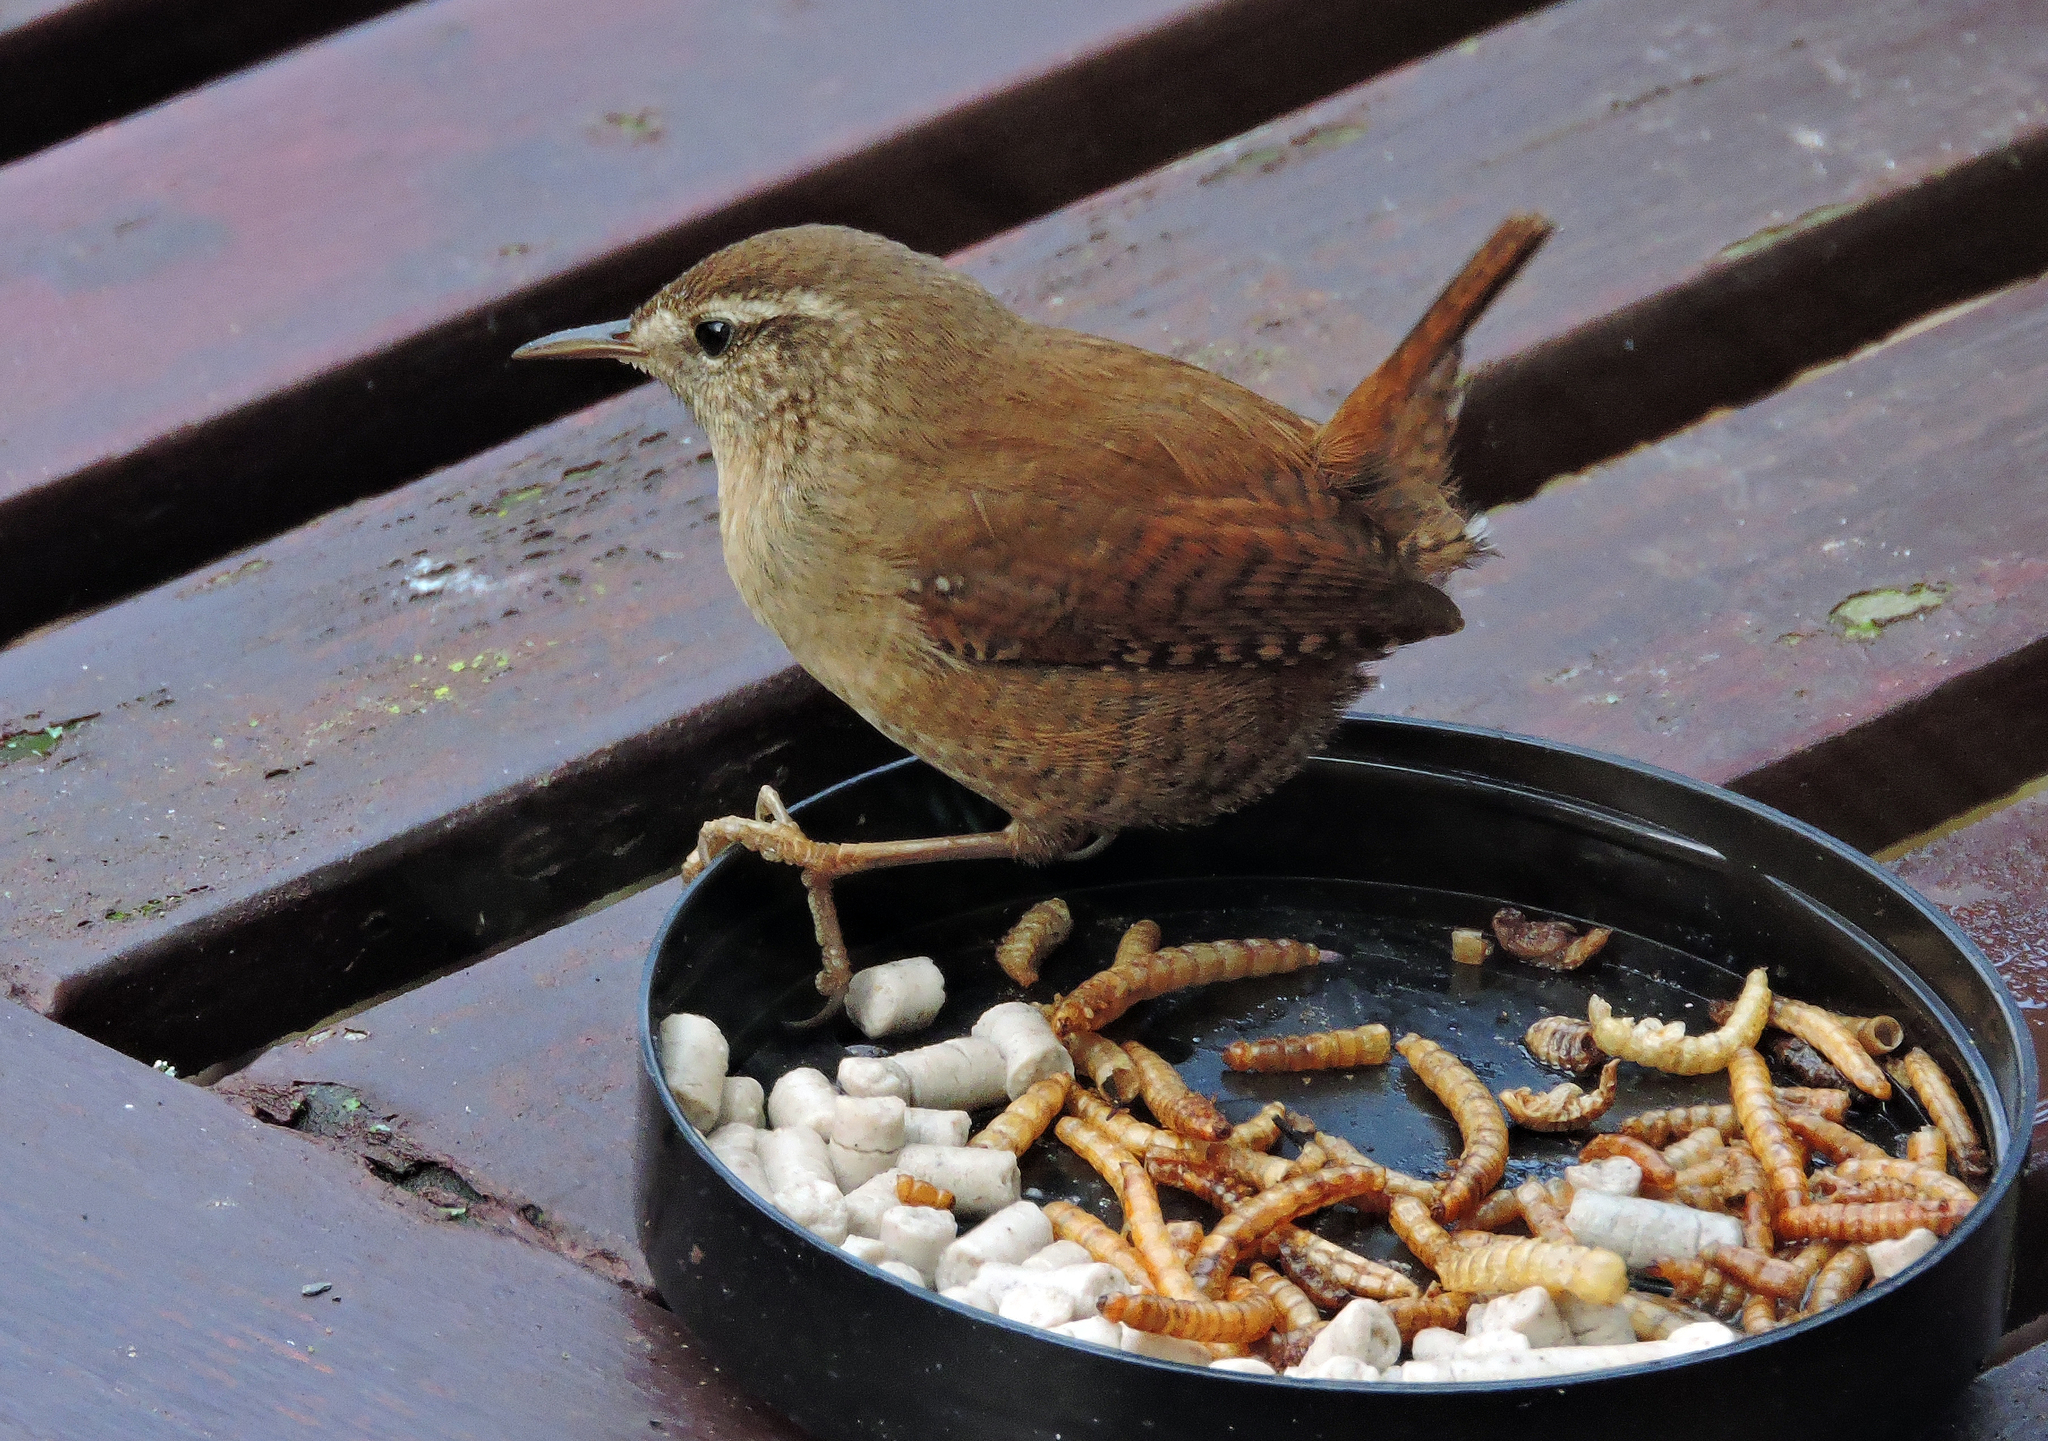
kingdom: Animalia
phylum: Chordata
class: Aves
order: Passeriformes
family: Troglodytidae
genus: Troglodytes
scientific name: Troglodytes troglodytes
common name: Eurasian wren
